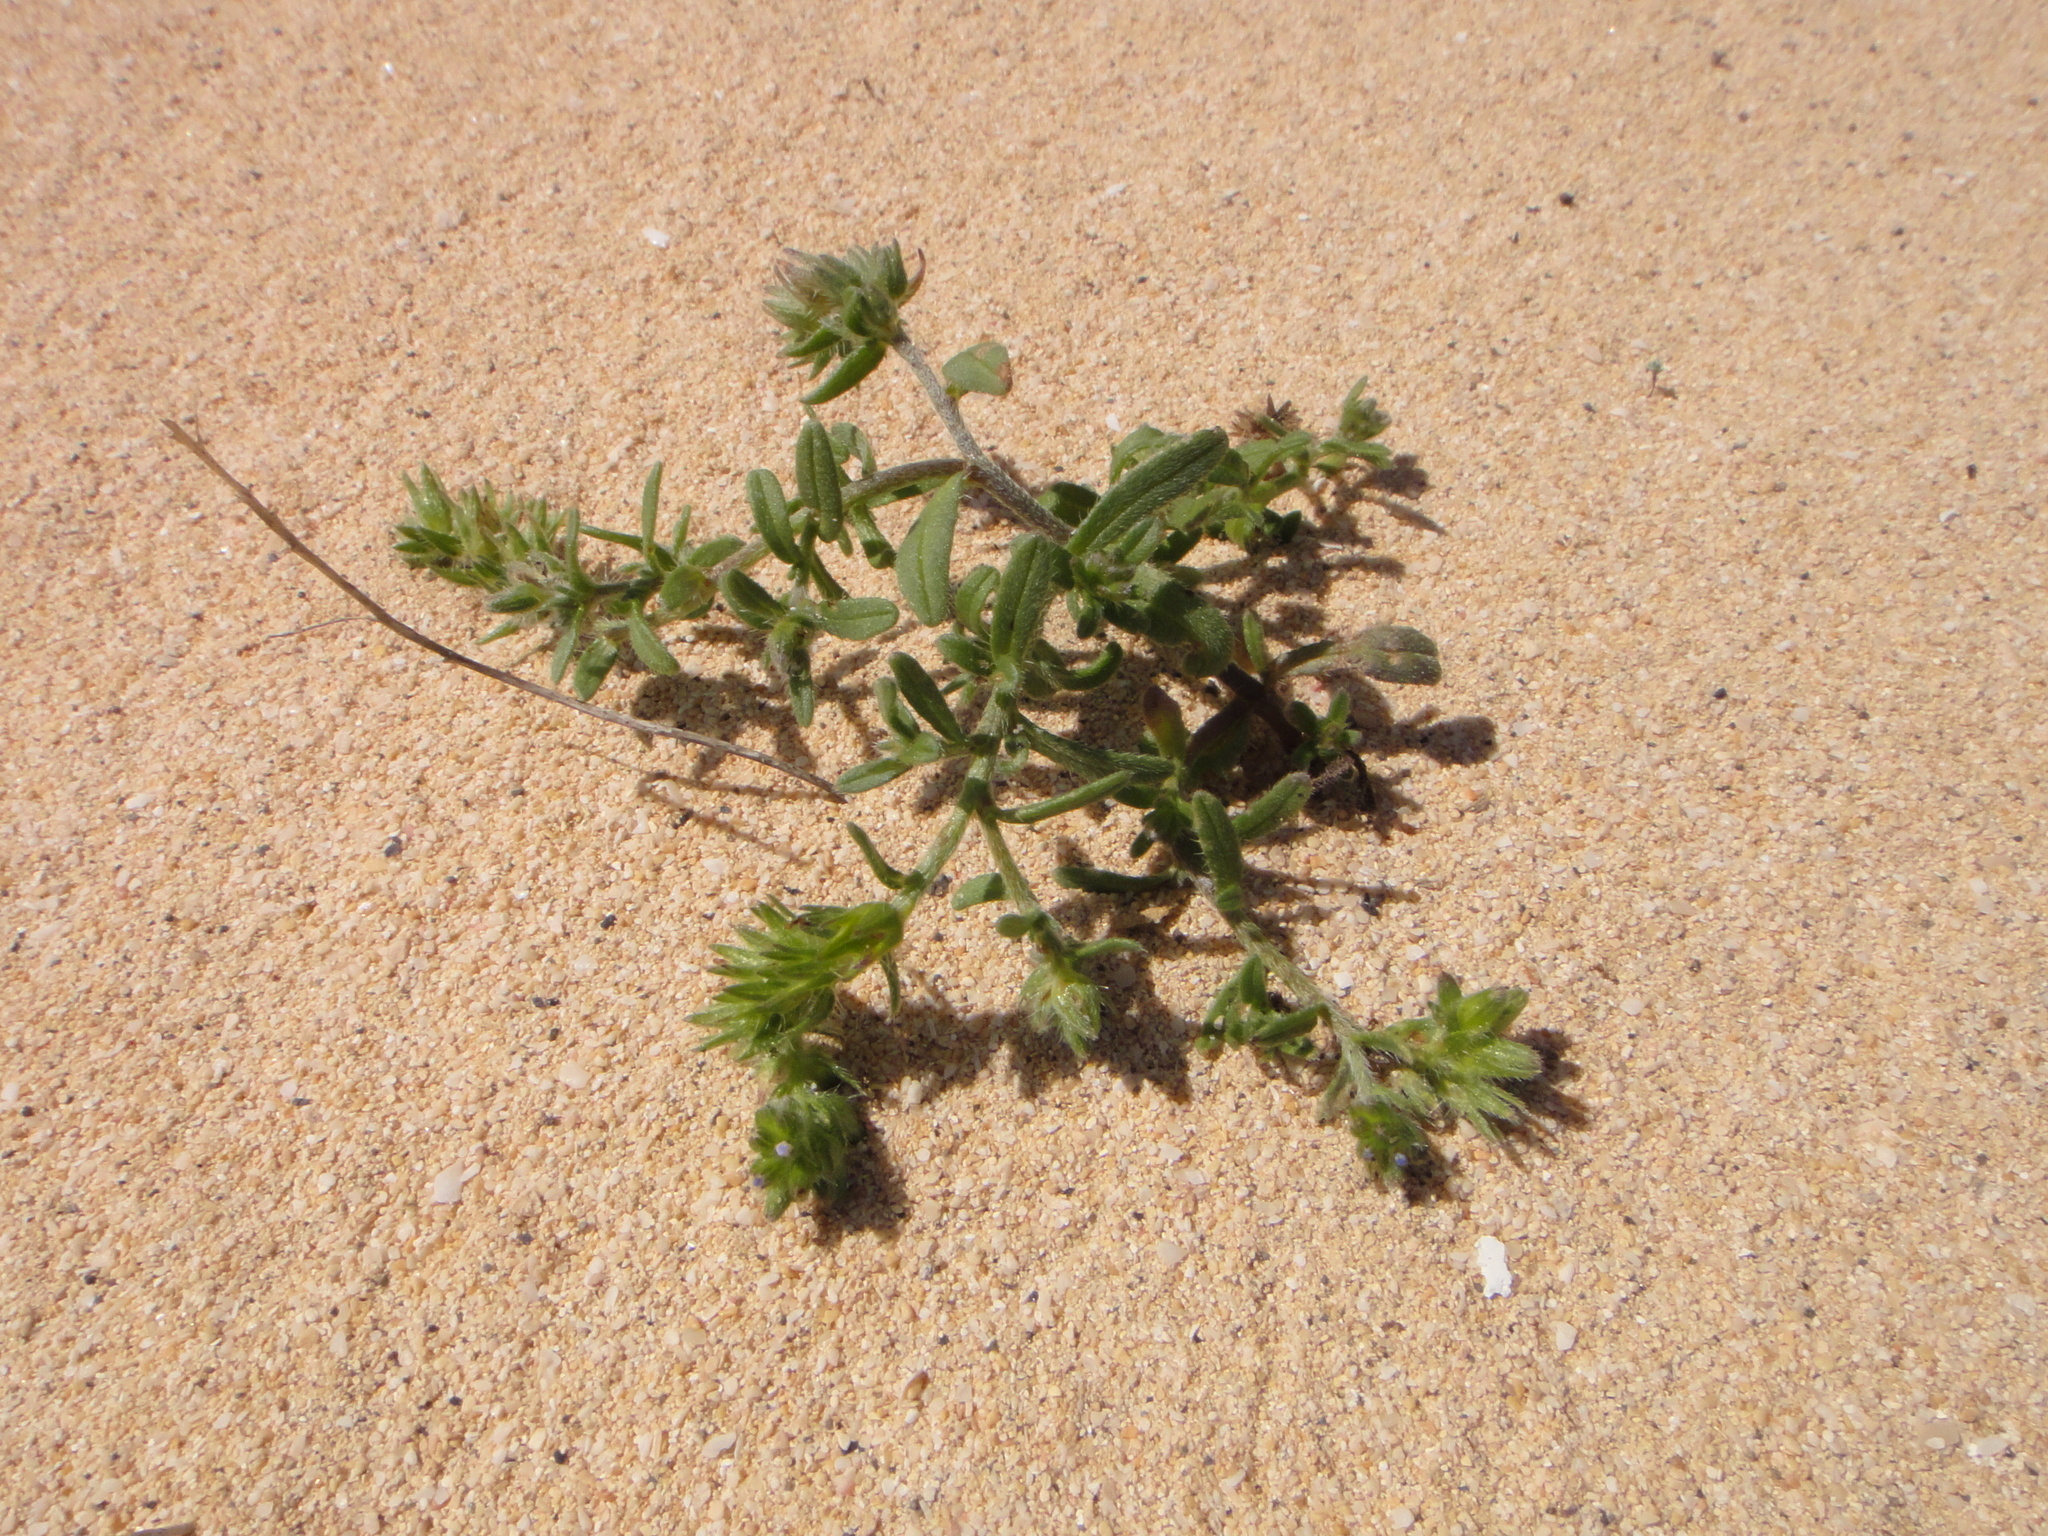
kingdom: Plantae
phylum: Tracheophyta
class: Magnoliopsida
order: Boraginales
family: Boraginaceae
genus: Mairetis
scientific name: Mairetis microsperma
